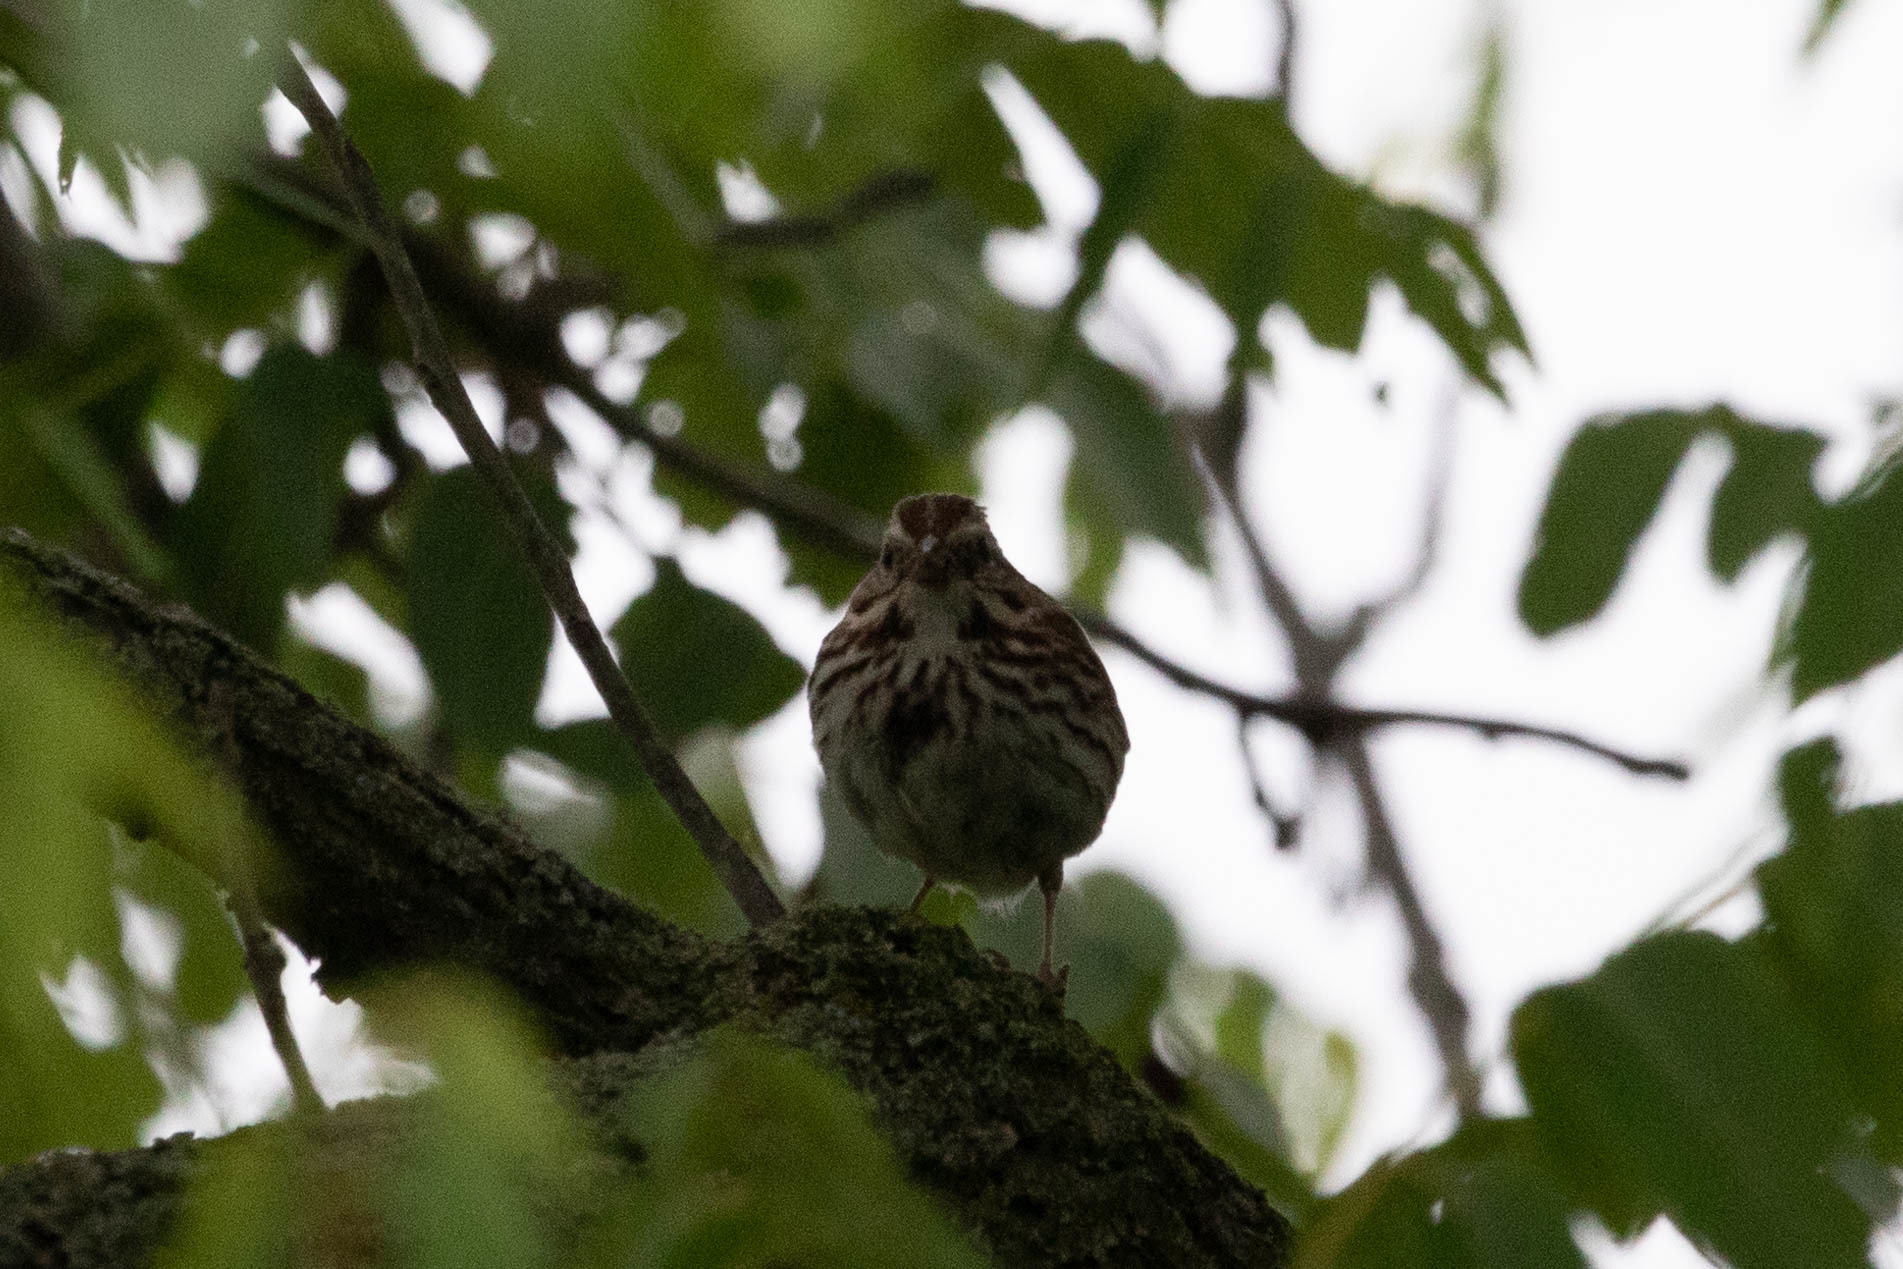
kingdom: Animalia
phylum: Chordata
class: Aves
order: Passeriformes
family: Passerellidae
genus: Melospiza
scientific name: Melospiza melodia
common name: Song sparrow
